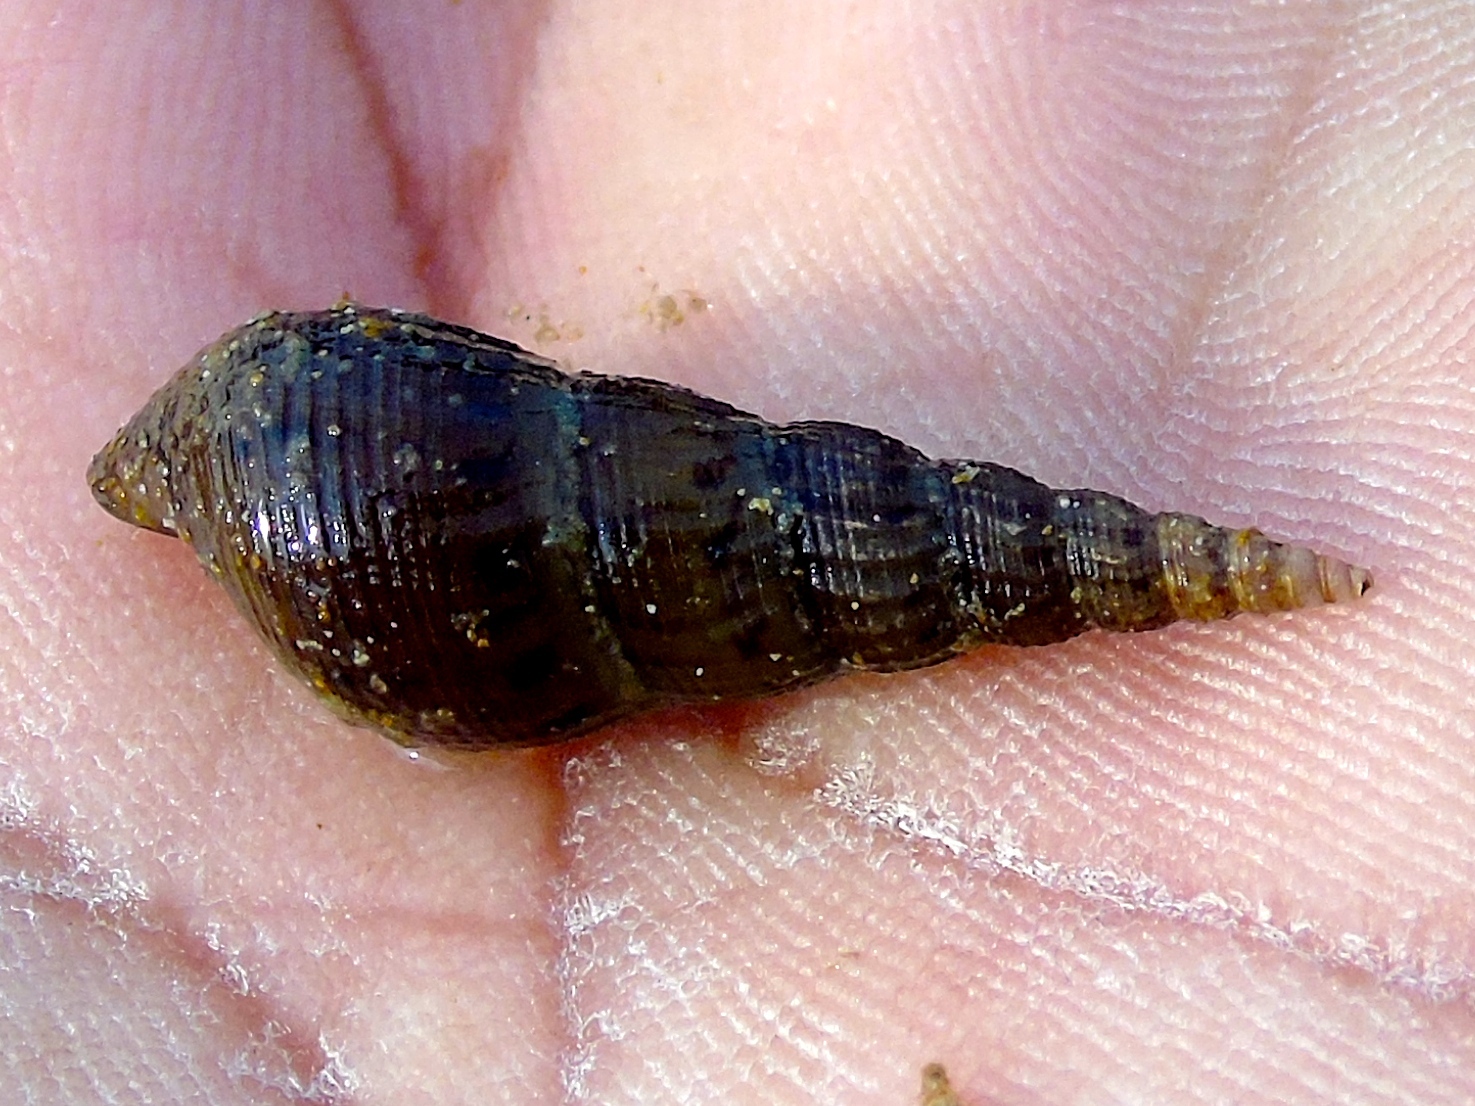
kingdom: Animalia
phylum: Mollusca
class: Gastropoda
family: Thiaridae
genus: Melanoides
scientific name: Melanoides tuberculata
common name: Red-rim melania
